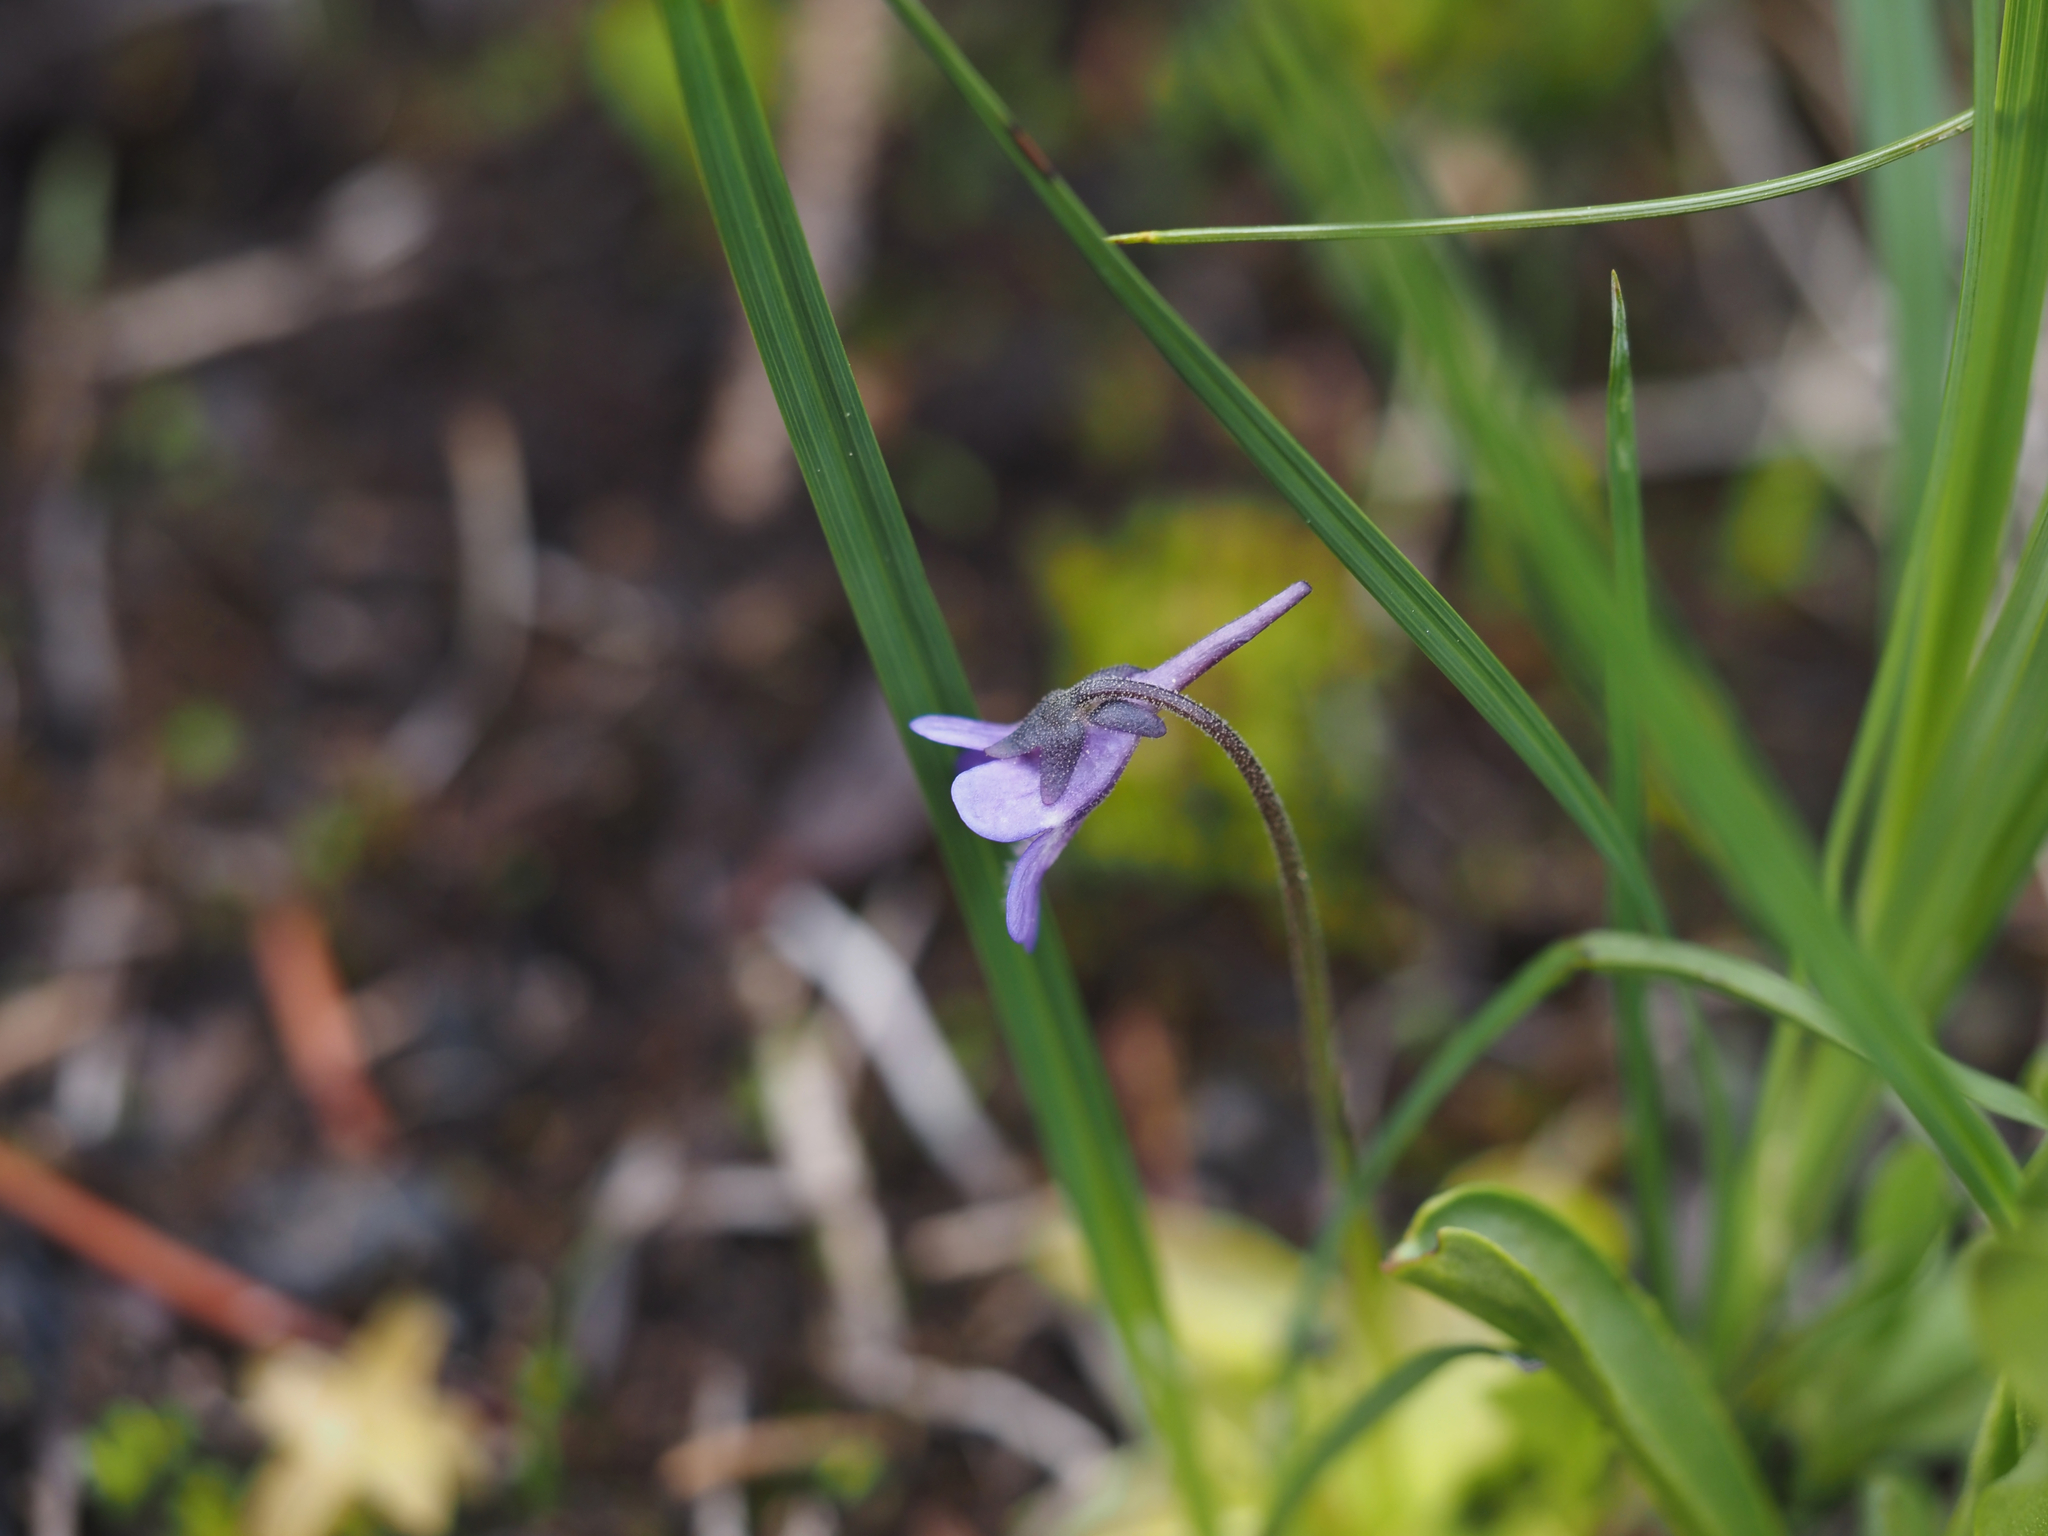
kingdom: Plantae
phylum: Tracheophyta
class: Magnoliopsida
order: Lamiales
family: Lentibulariaceae
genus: Pinguicula
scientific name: Pinguicula macroceras
